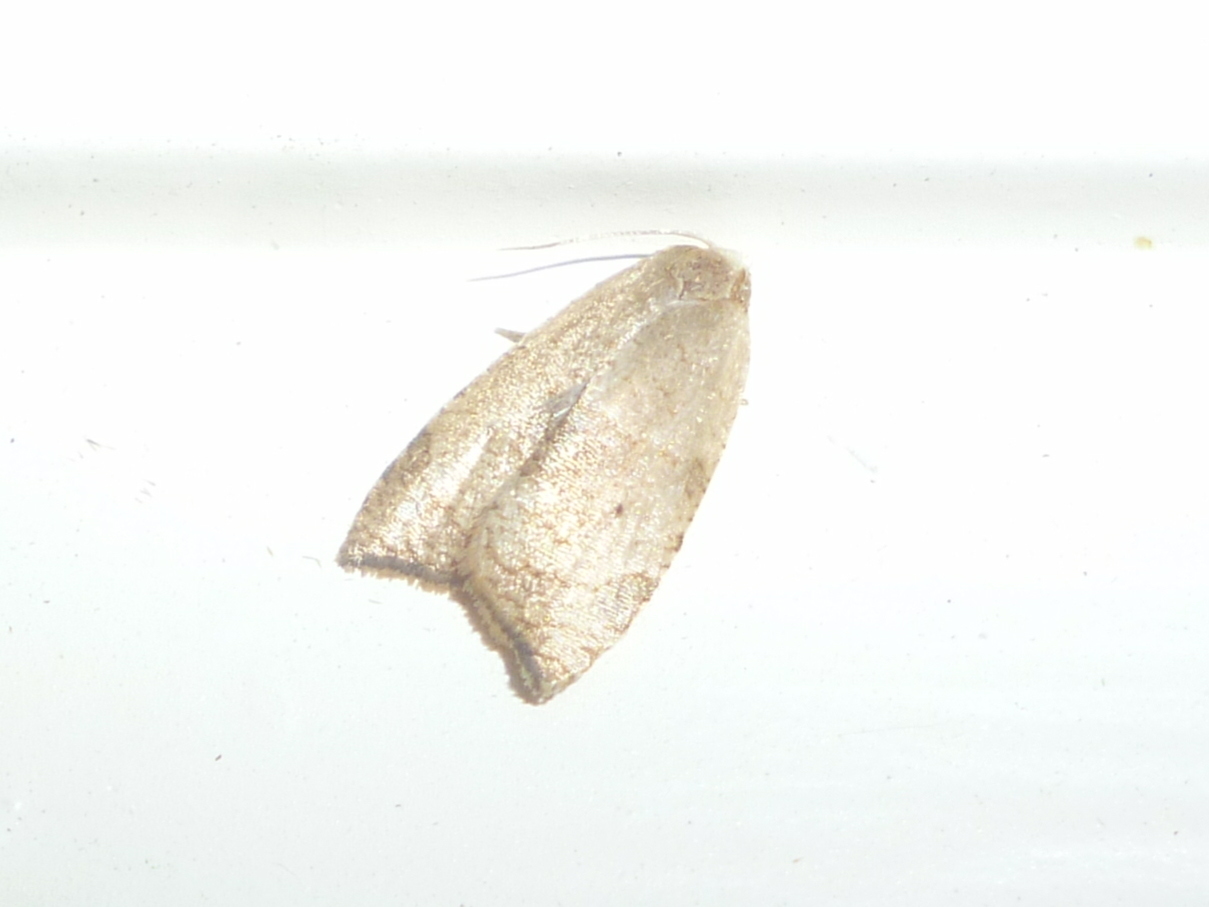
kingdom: Animalia
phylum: Arthropoda
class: Insecta
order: Lepidoptera
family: Tortricidae
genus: Coelostathma
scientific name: Coelostathma discopunctana
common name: Batman moth
